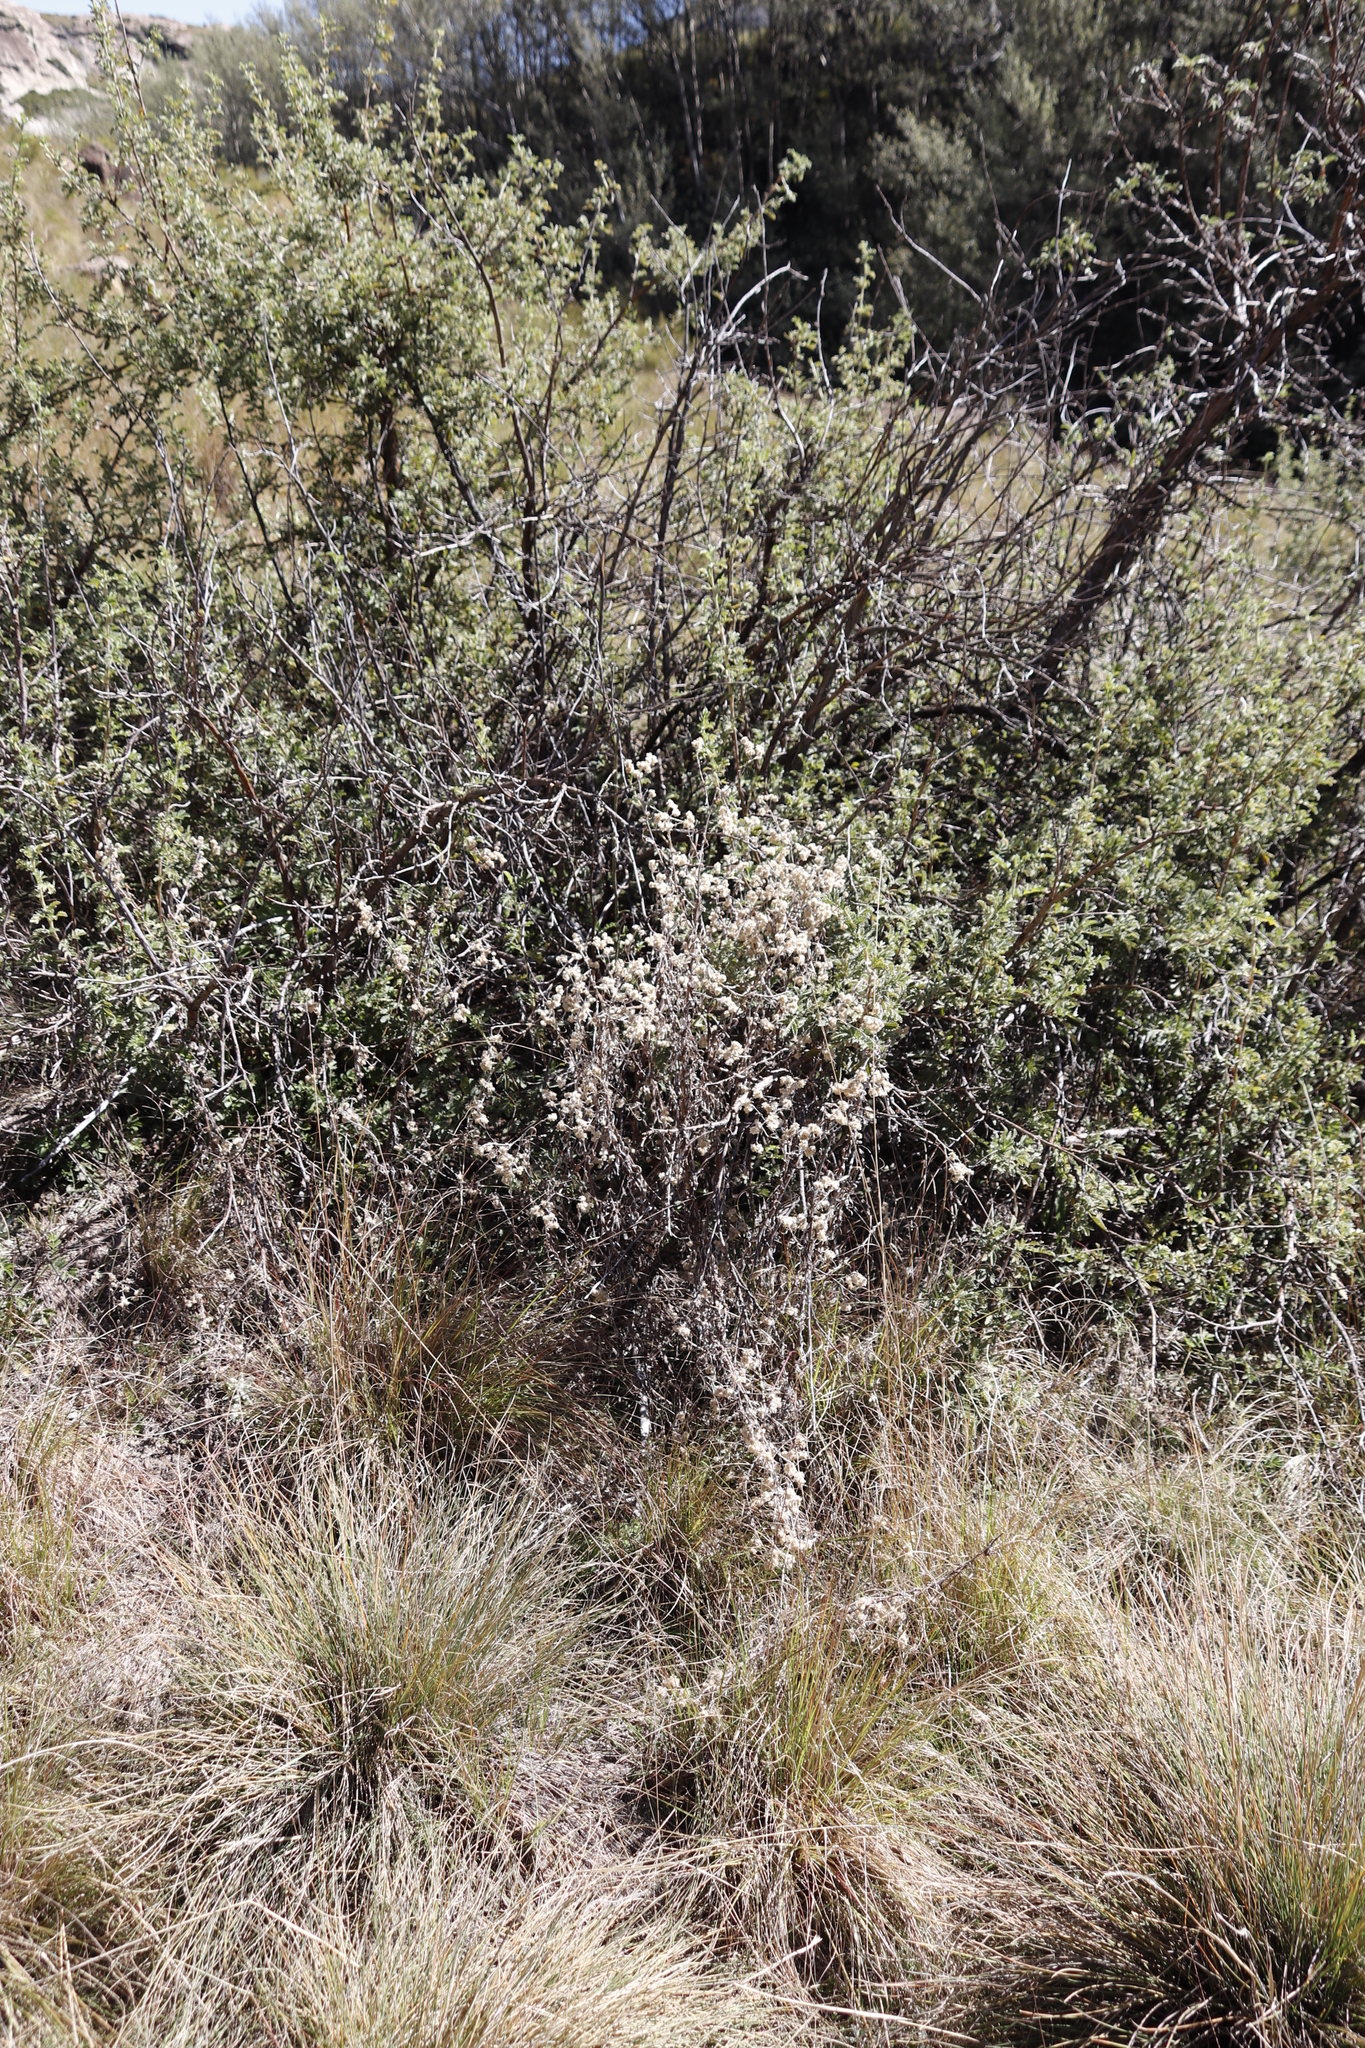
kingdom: Plantae
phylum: Tracheophyta
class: Magnoliopsida
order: Rosales
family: Rosaceae
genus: Leucosidea
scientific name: Leucosidea sericea
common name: Oldwood
